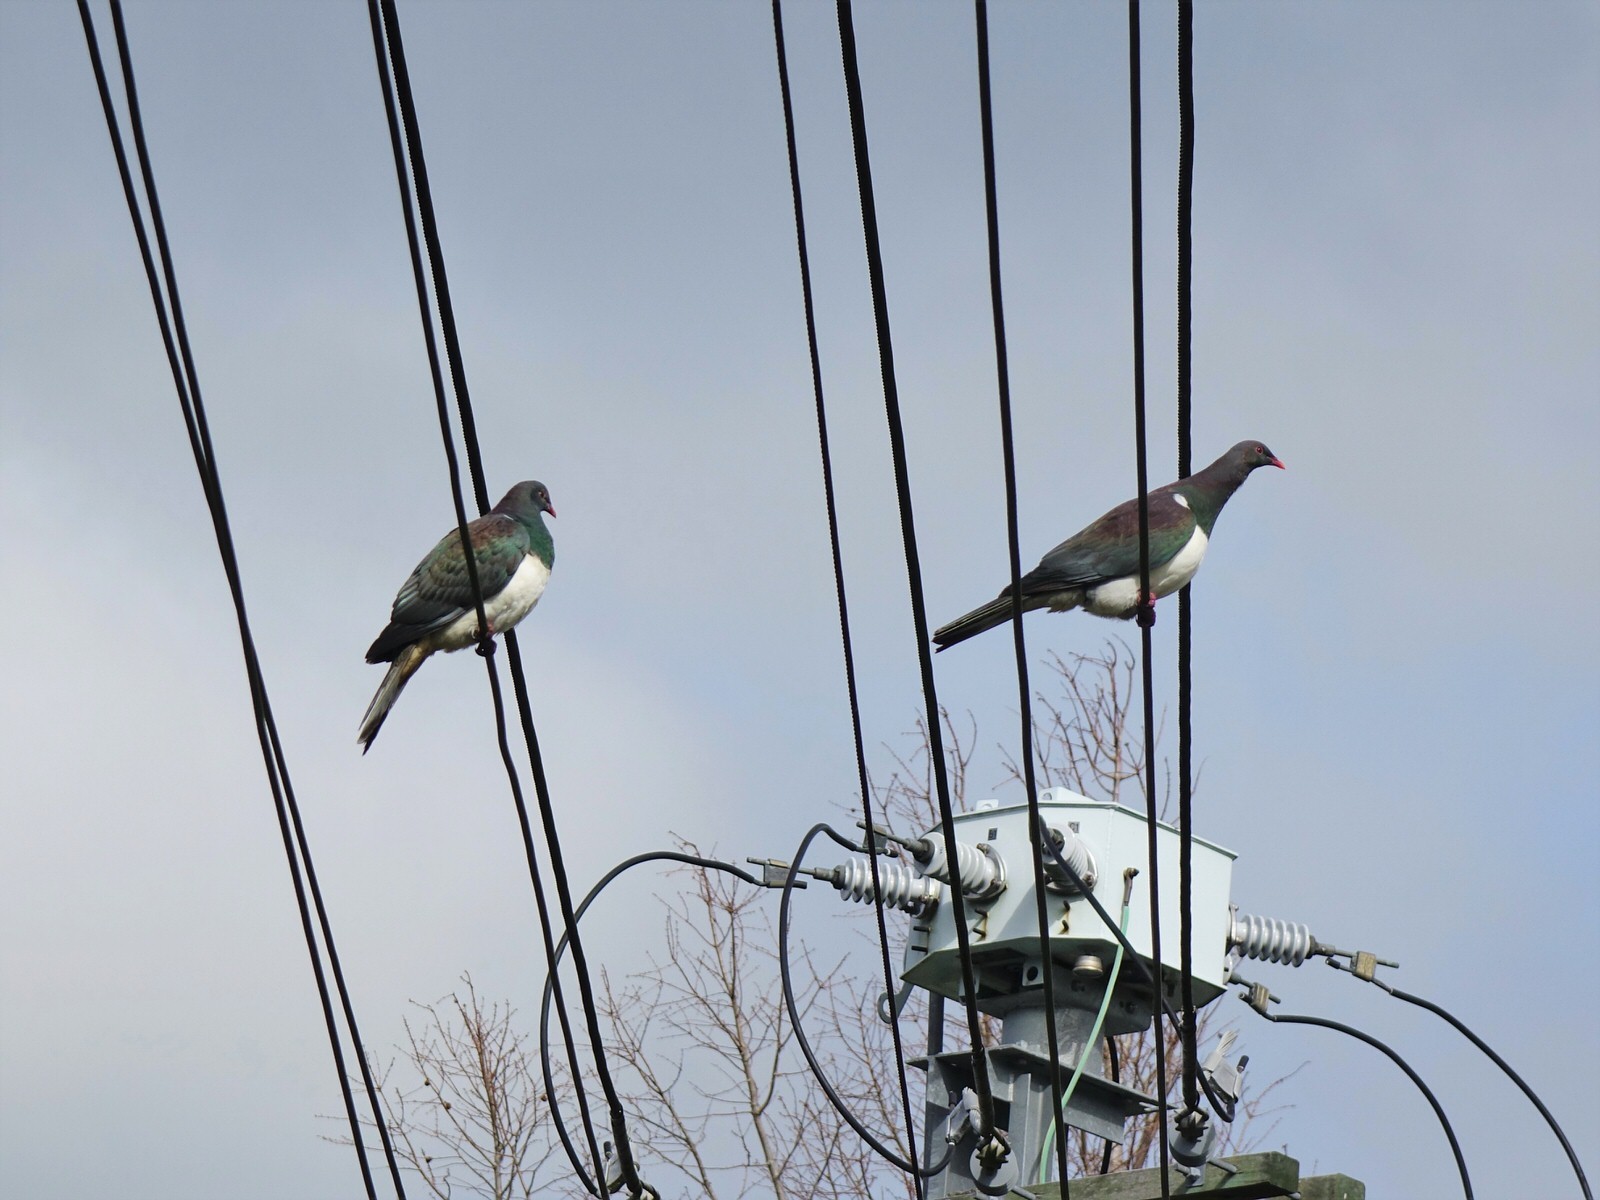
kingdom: Animalia
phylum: Chordata
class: Aves
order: Columbiformes
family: Columbidae
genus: Hemiphaga
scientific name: Hemiphaga novaeseelandiae
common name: New zealand pigeon
